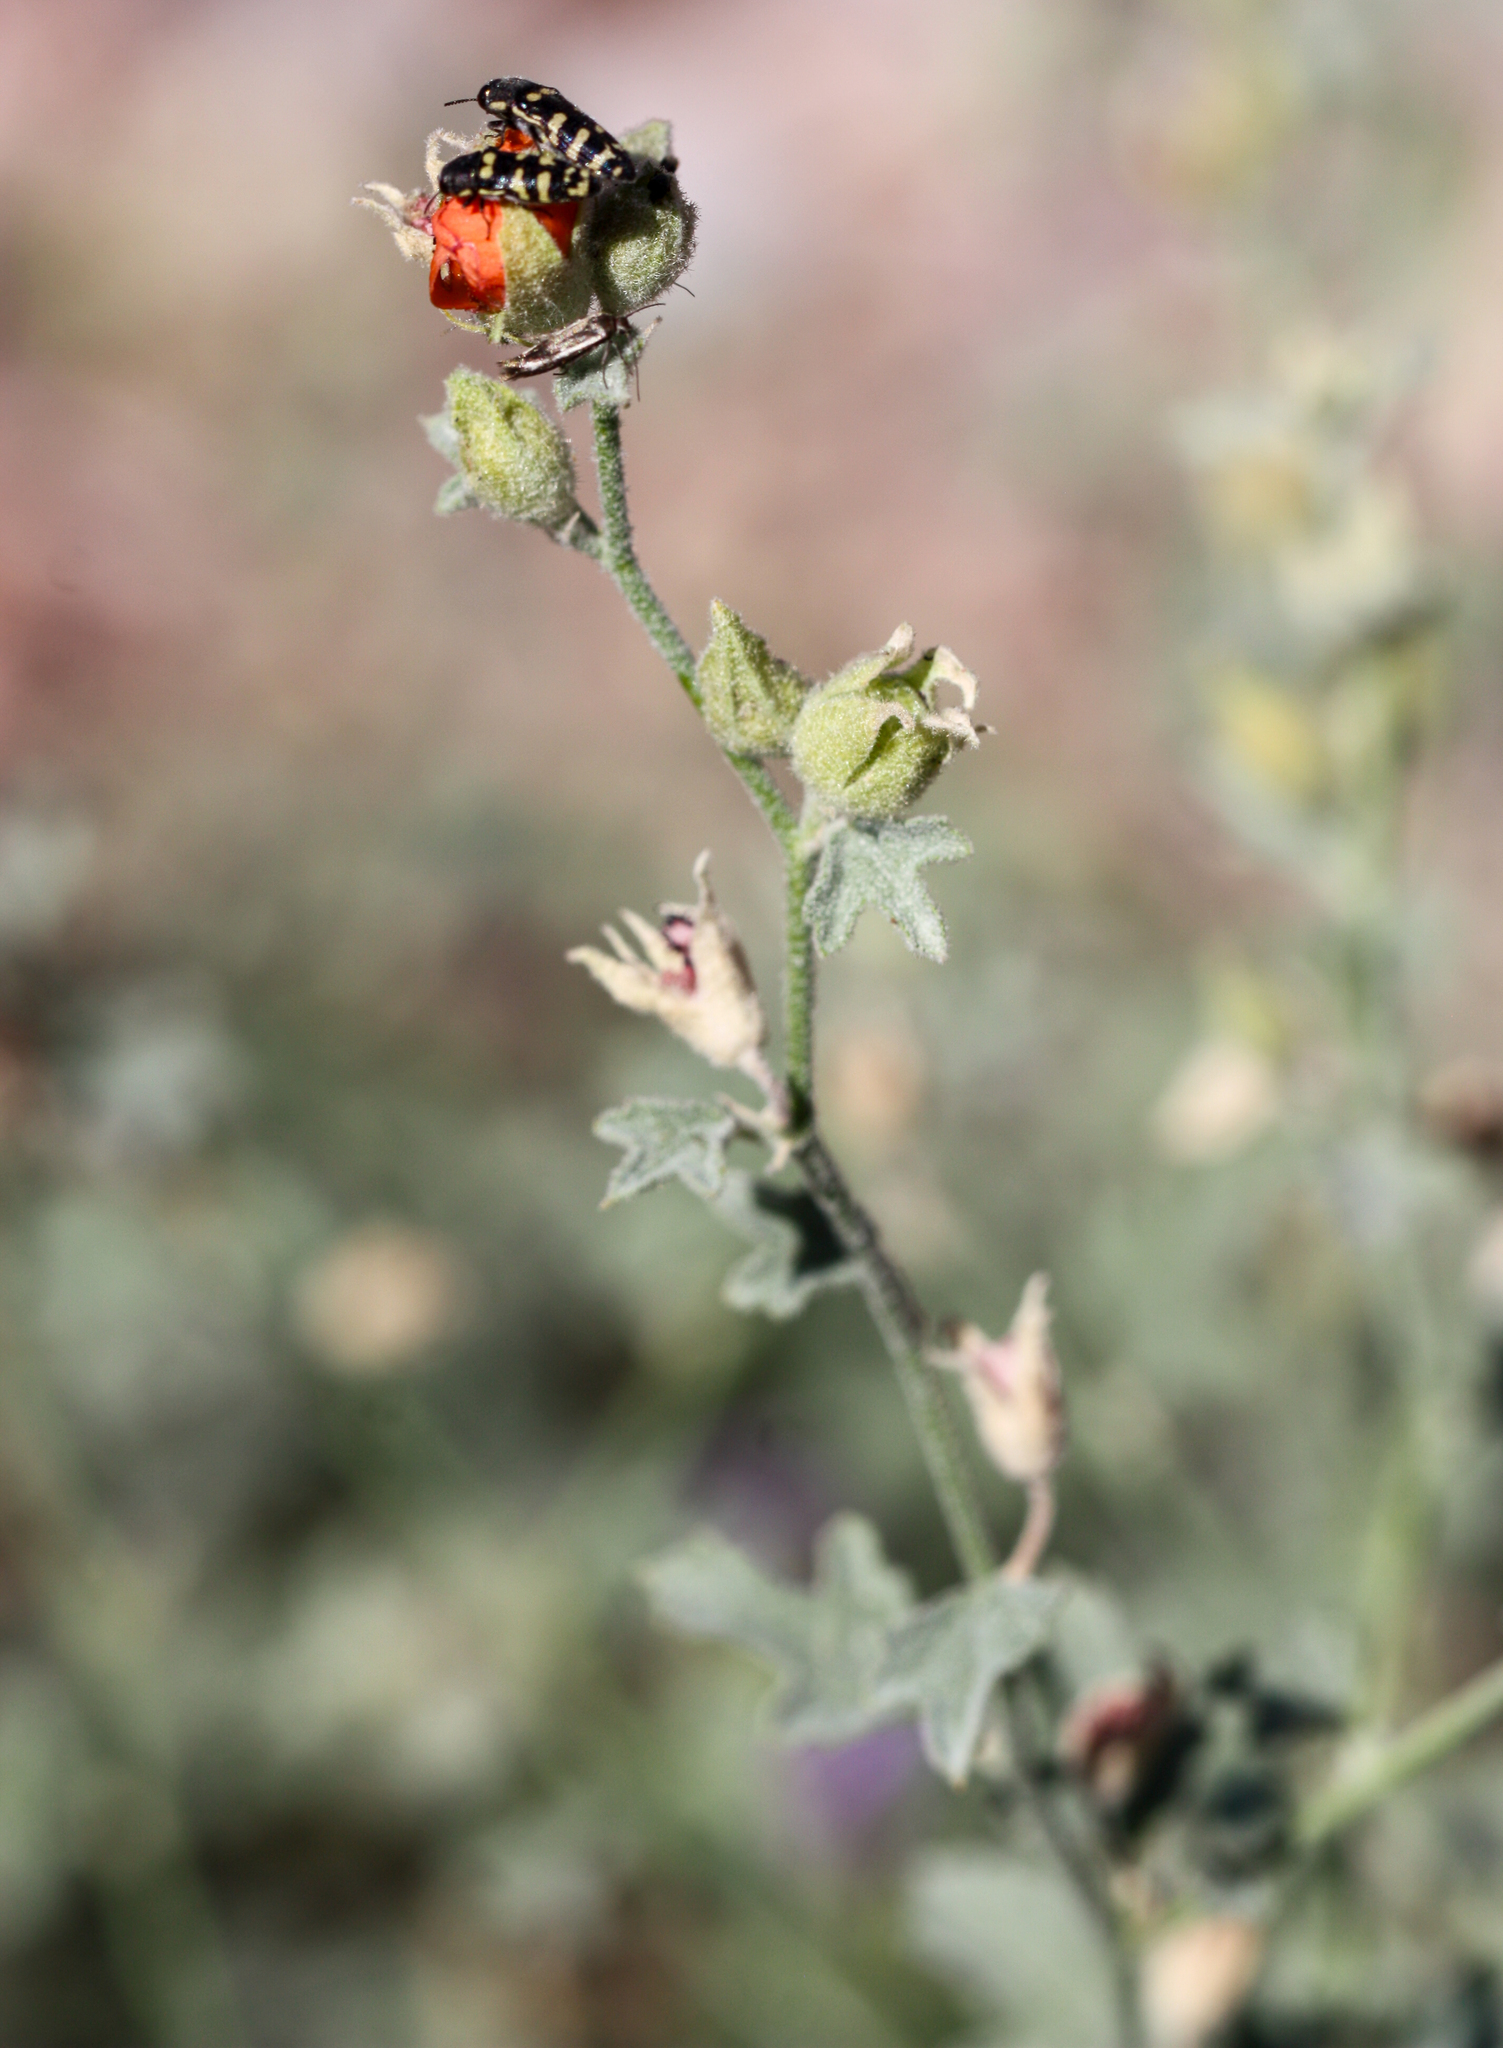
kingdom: Animalia
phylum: Arthropoda
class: Insecta
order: Coleoptera
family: Buprestidae
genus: Acmaeodera
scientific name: Acmaeodera alicia
